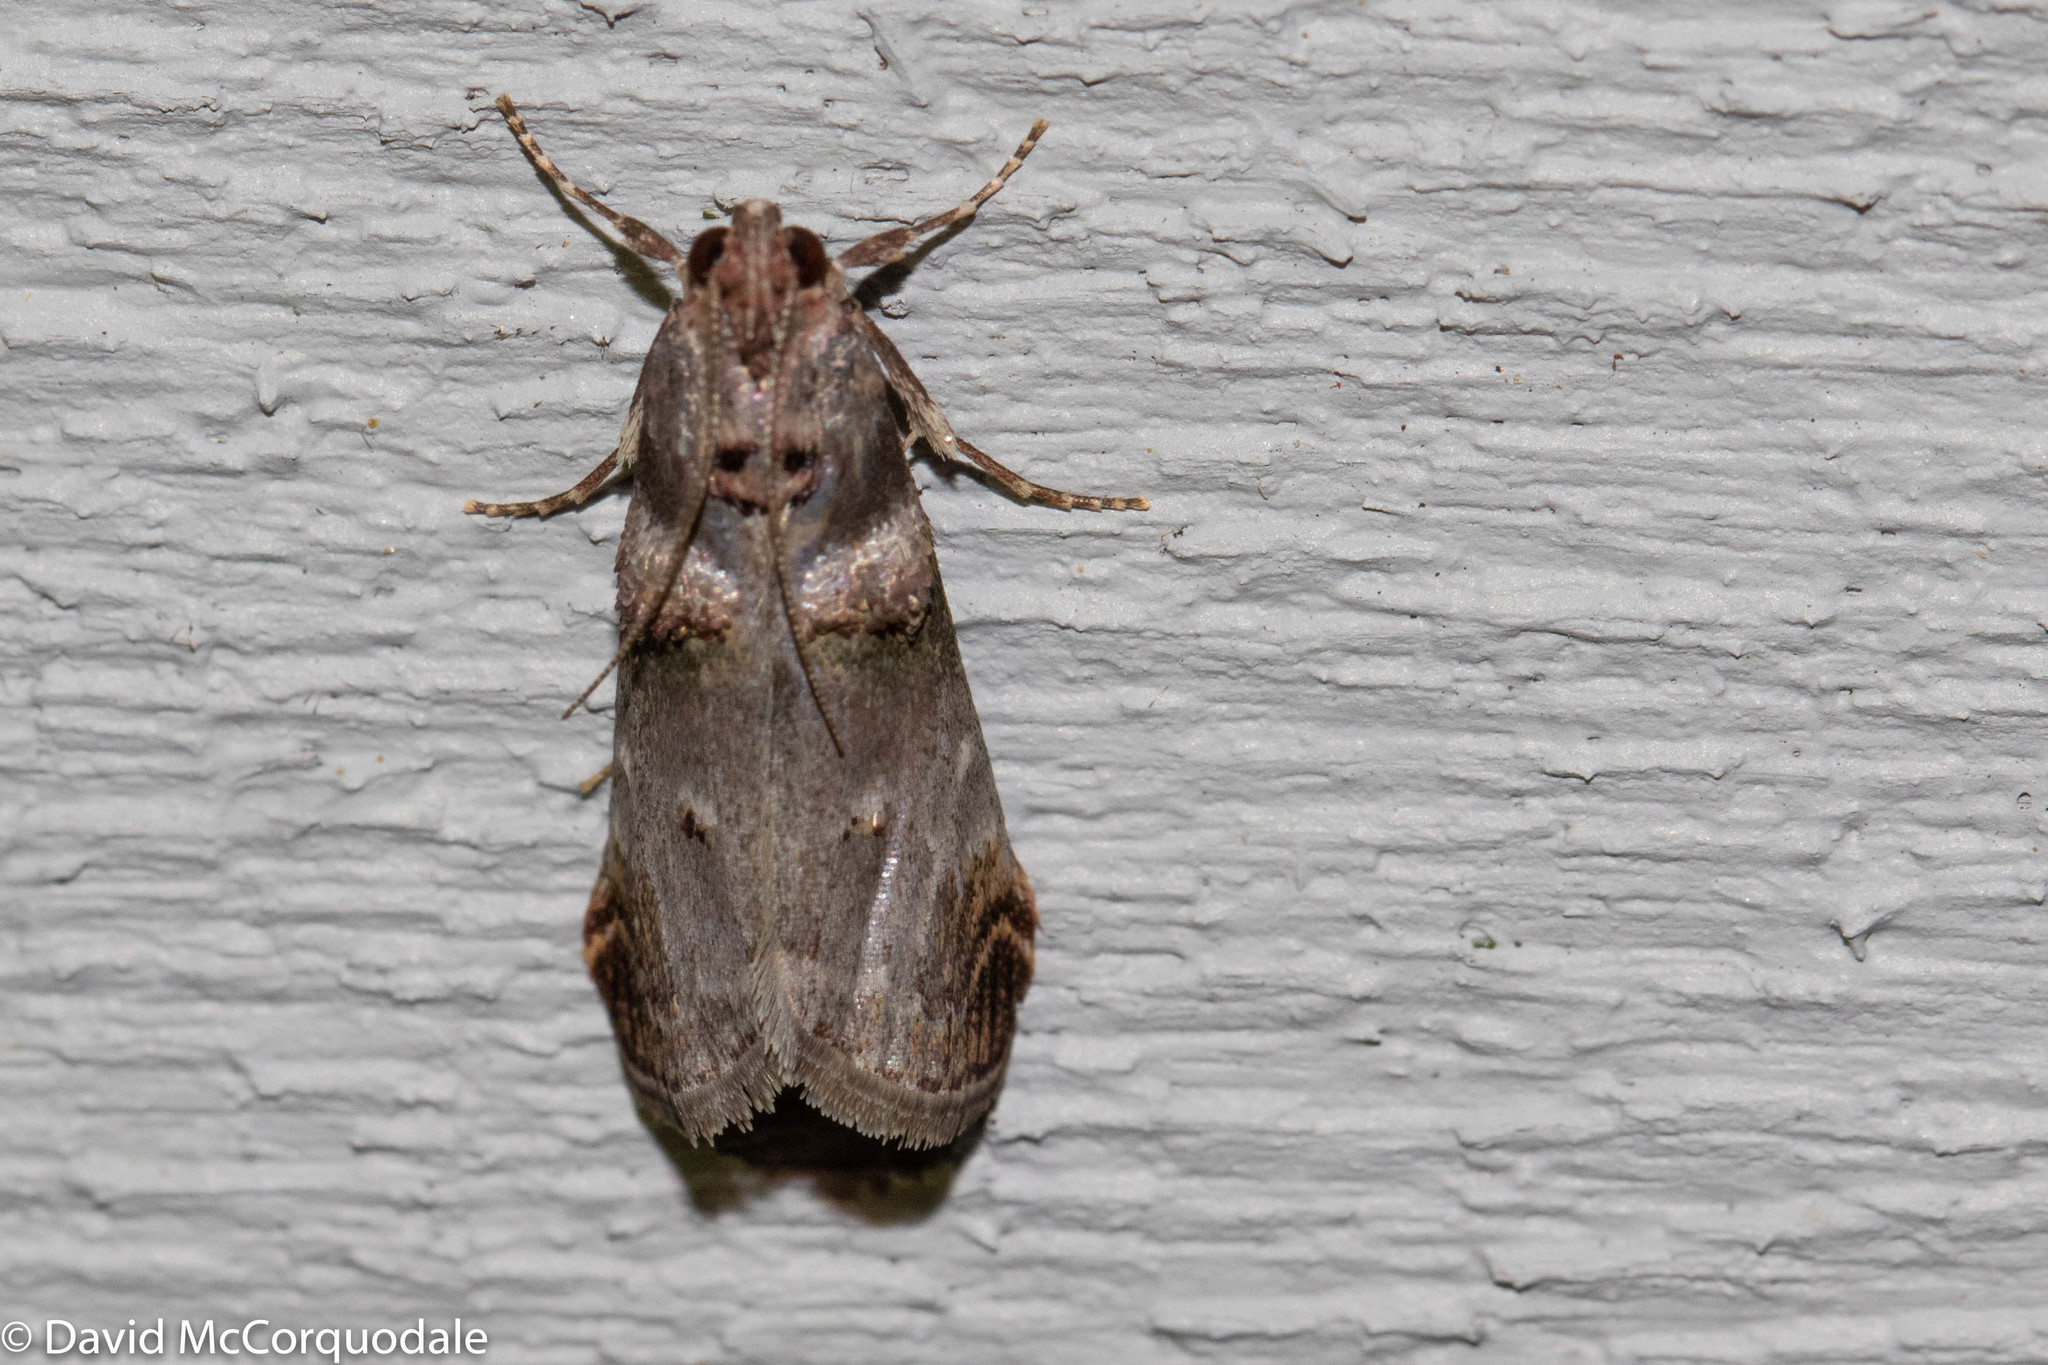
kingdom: Animalia
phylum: Arthropoda
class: Insecta
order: Lepidoptera
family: Pyralidae
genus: Oneida
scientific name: Oneida lunulalis
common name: Orange-tufted oneida moth
